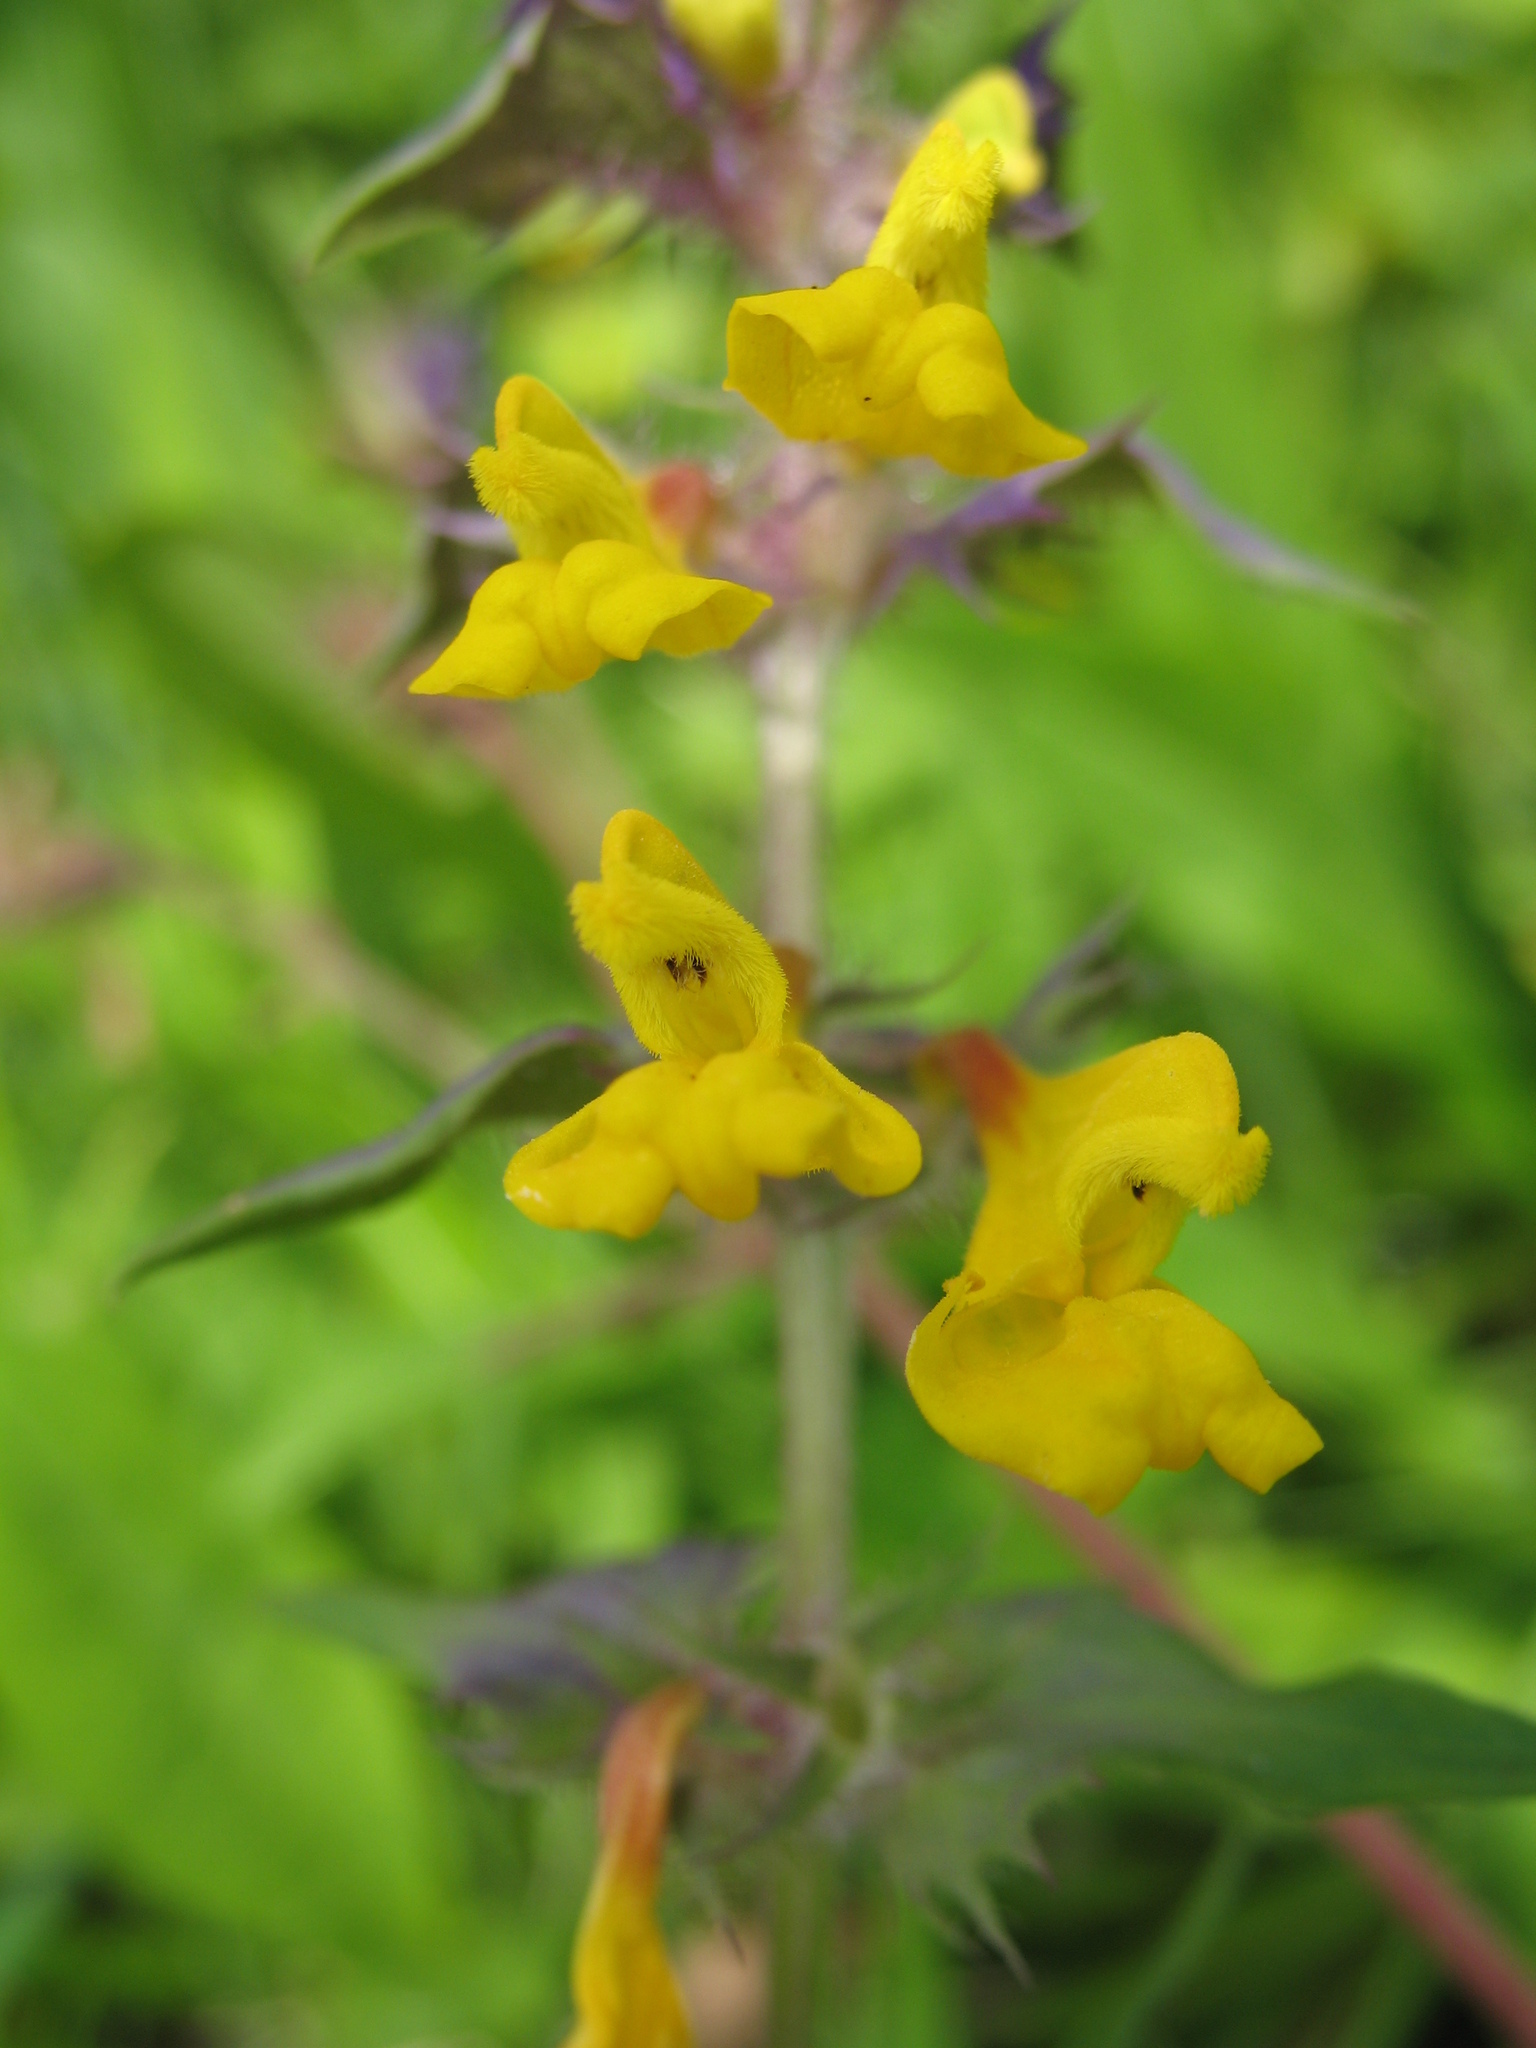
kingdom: Plantae
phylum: Tracheophyta
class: Magnoliopsida
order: Lamiales
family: Orobanchaceae
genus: Melampyrum
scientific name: Melampyrum nemorosum
